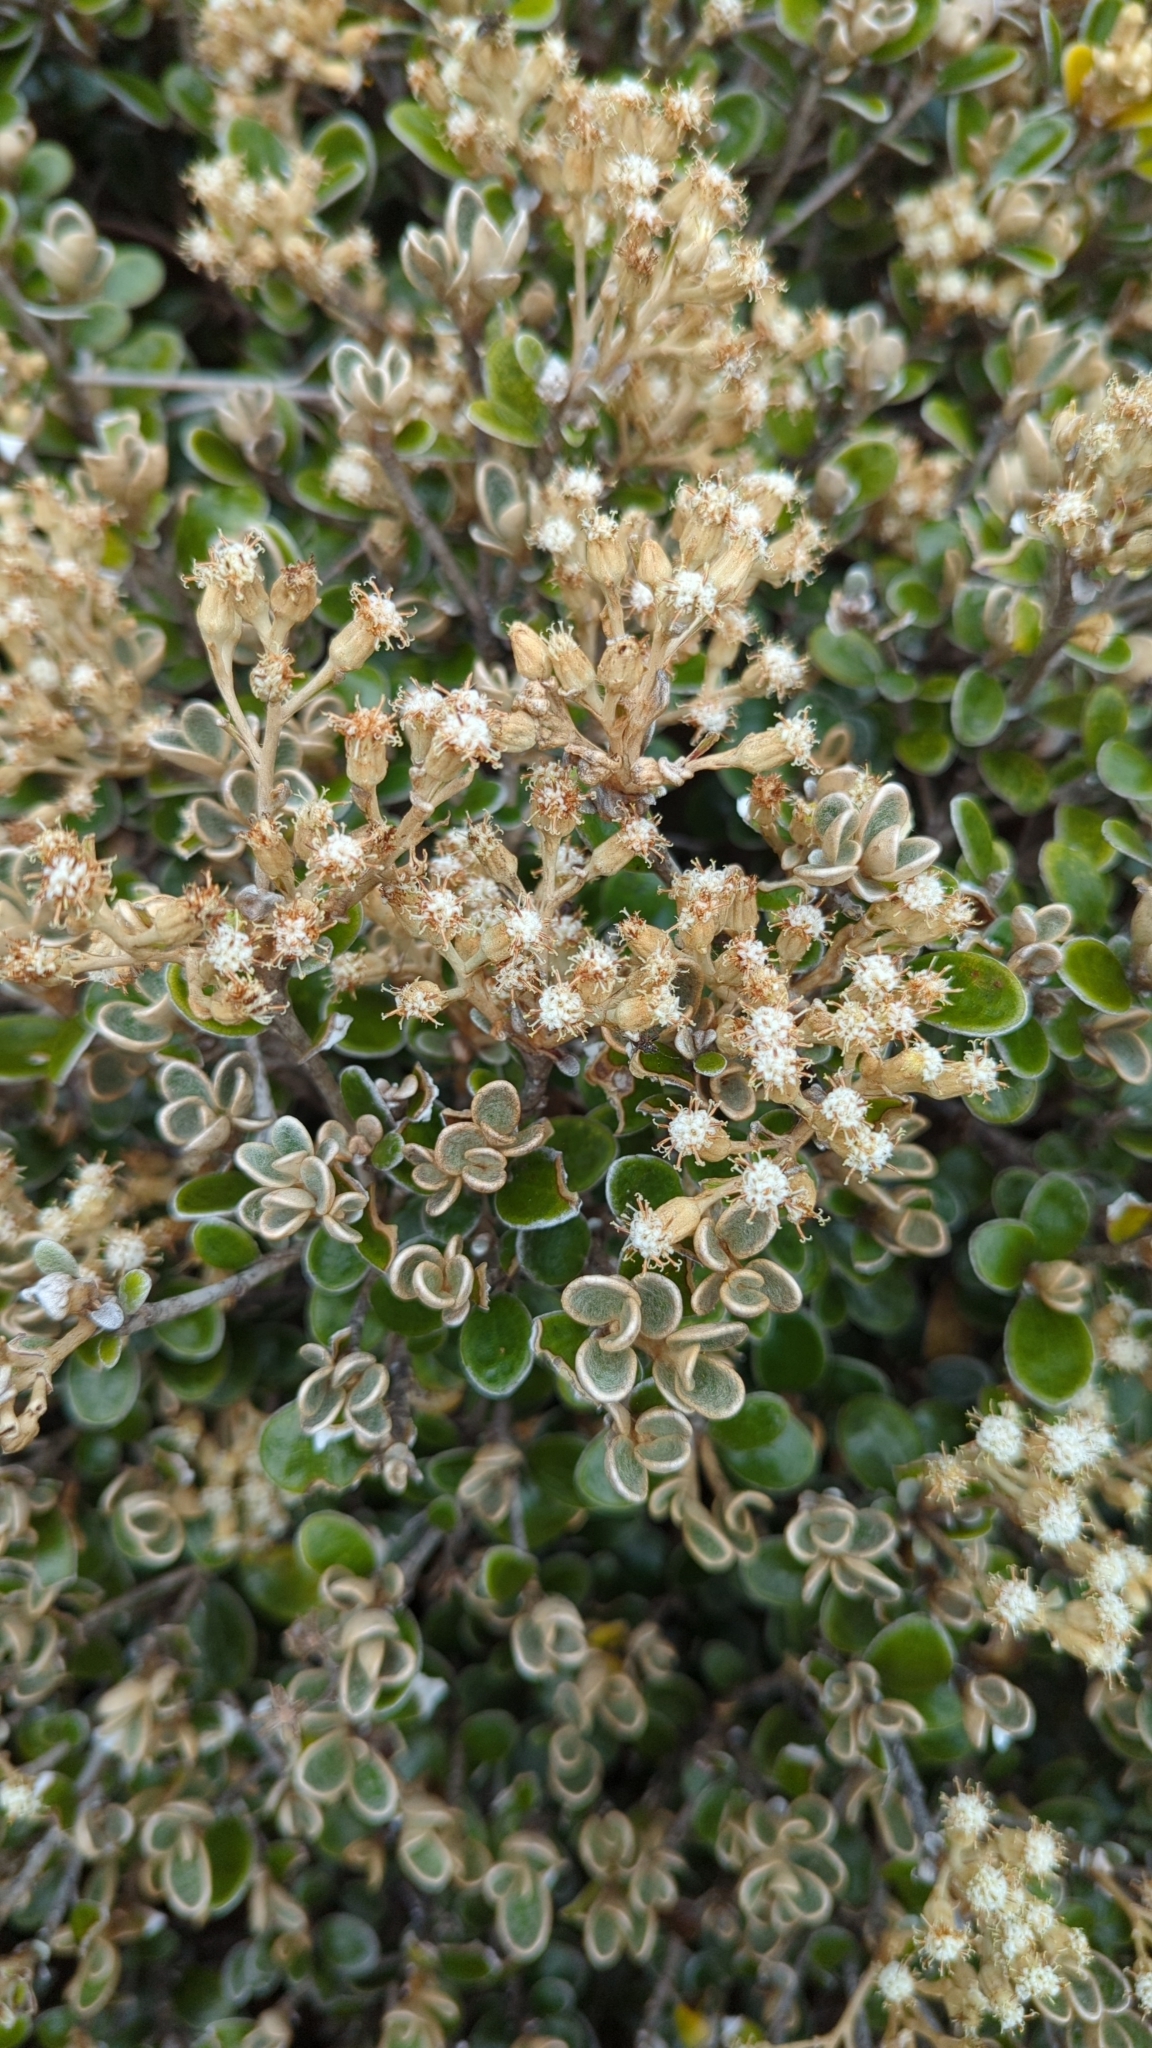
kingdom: Plantae
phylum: Tracheophyta
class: Magnoliopsida
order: Asterales
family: Asteraceae
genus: Brachyglottis
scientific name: Brachyglottis bidwillii
